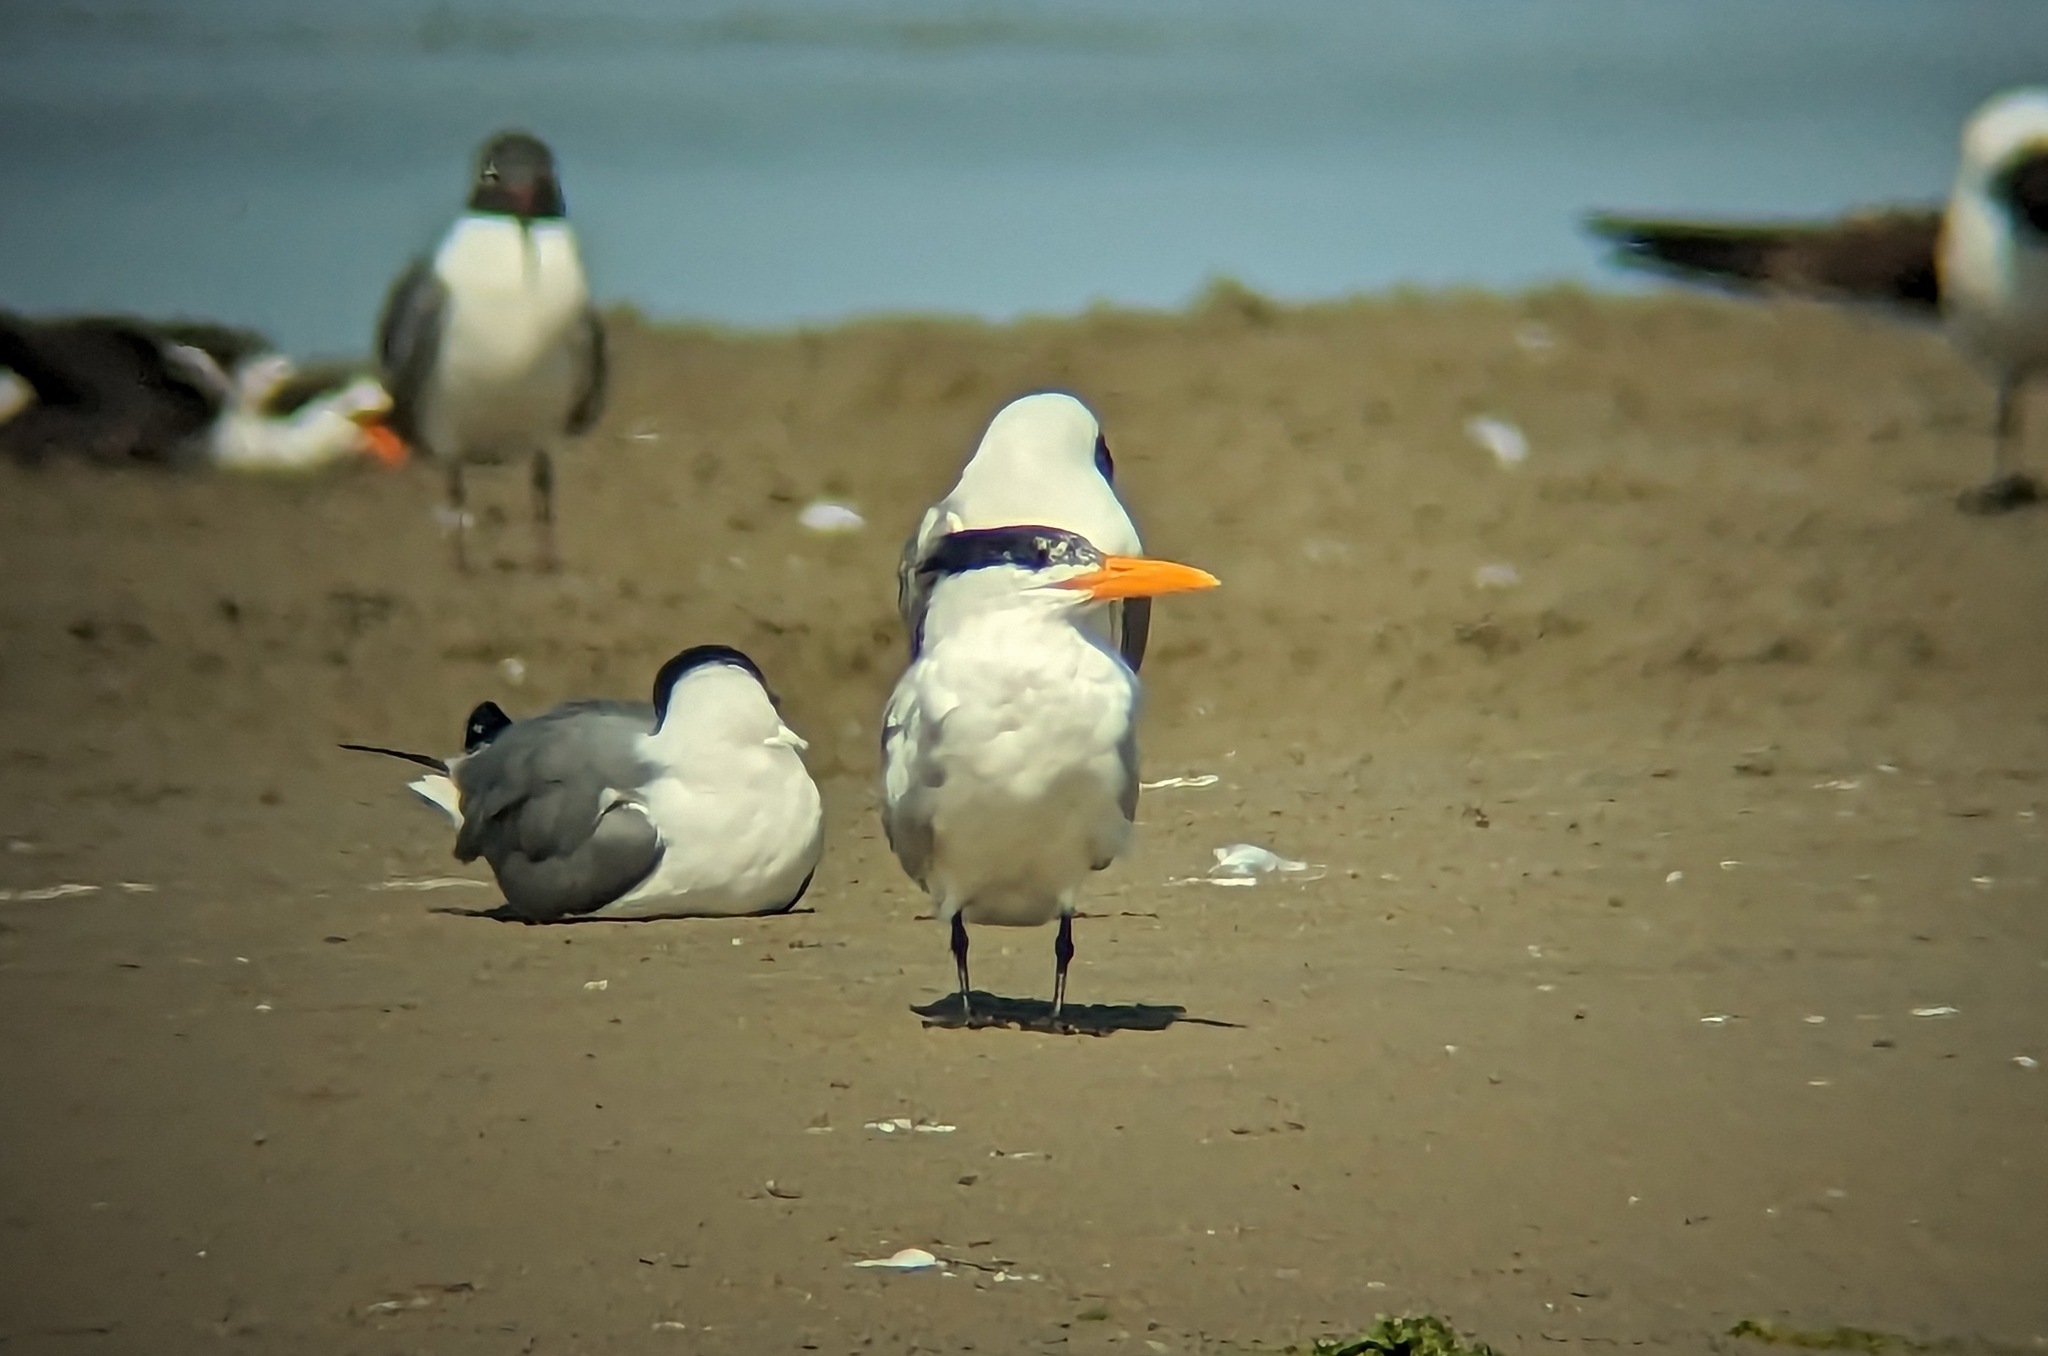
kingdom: Animalia
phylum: Chordata
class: Aves
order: Charadriiformes
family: Laridae
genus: Thalasseus
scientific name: Thalasseus maximus
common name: Royal tern
